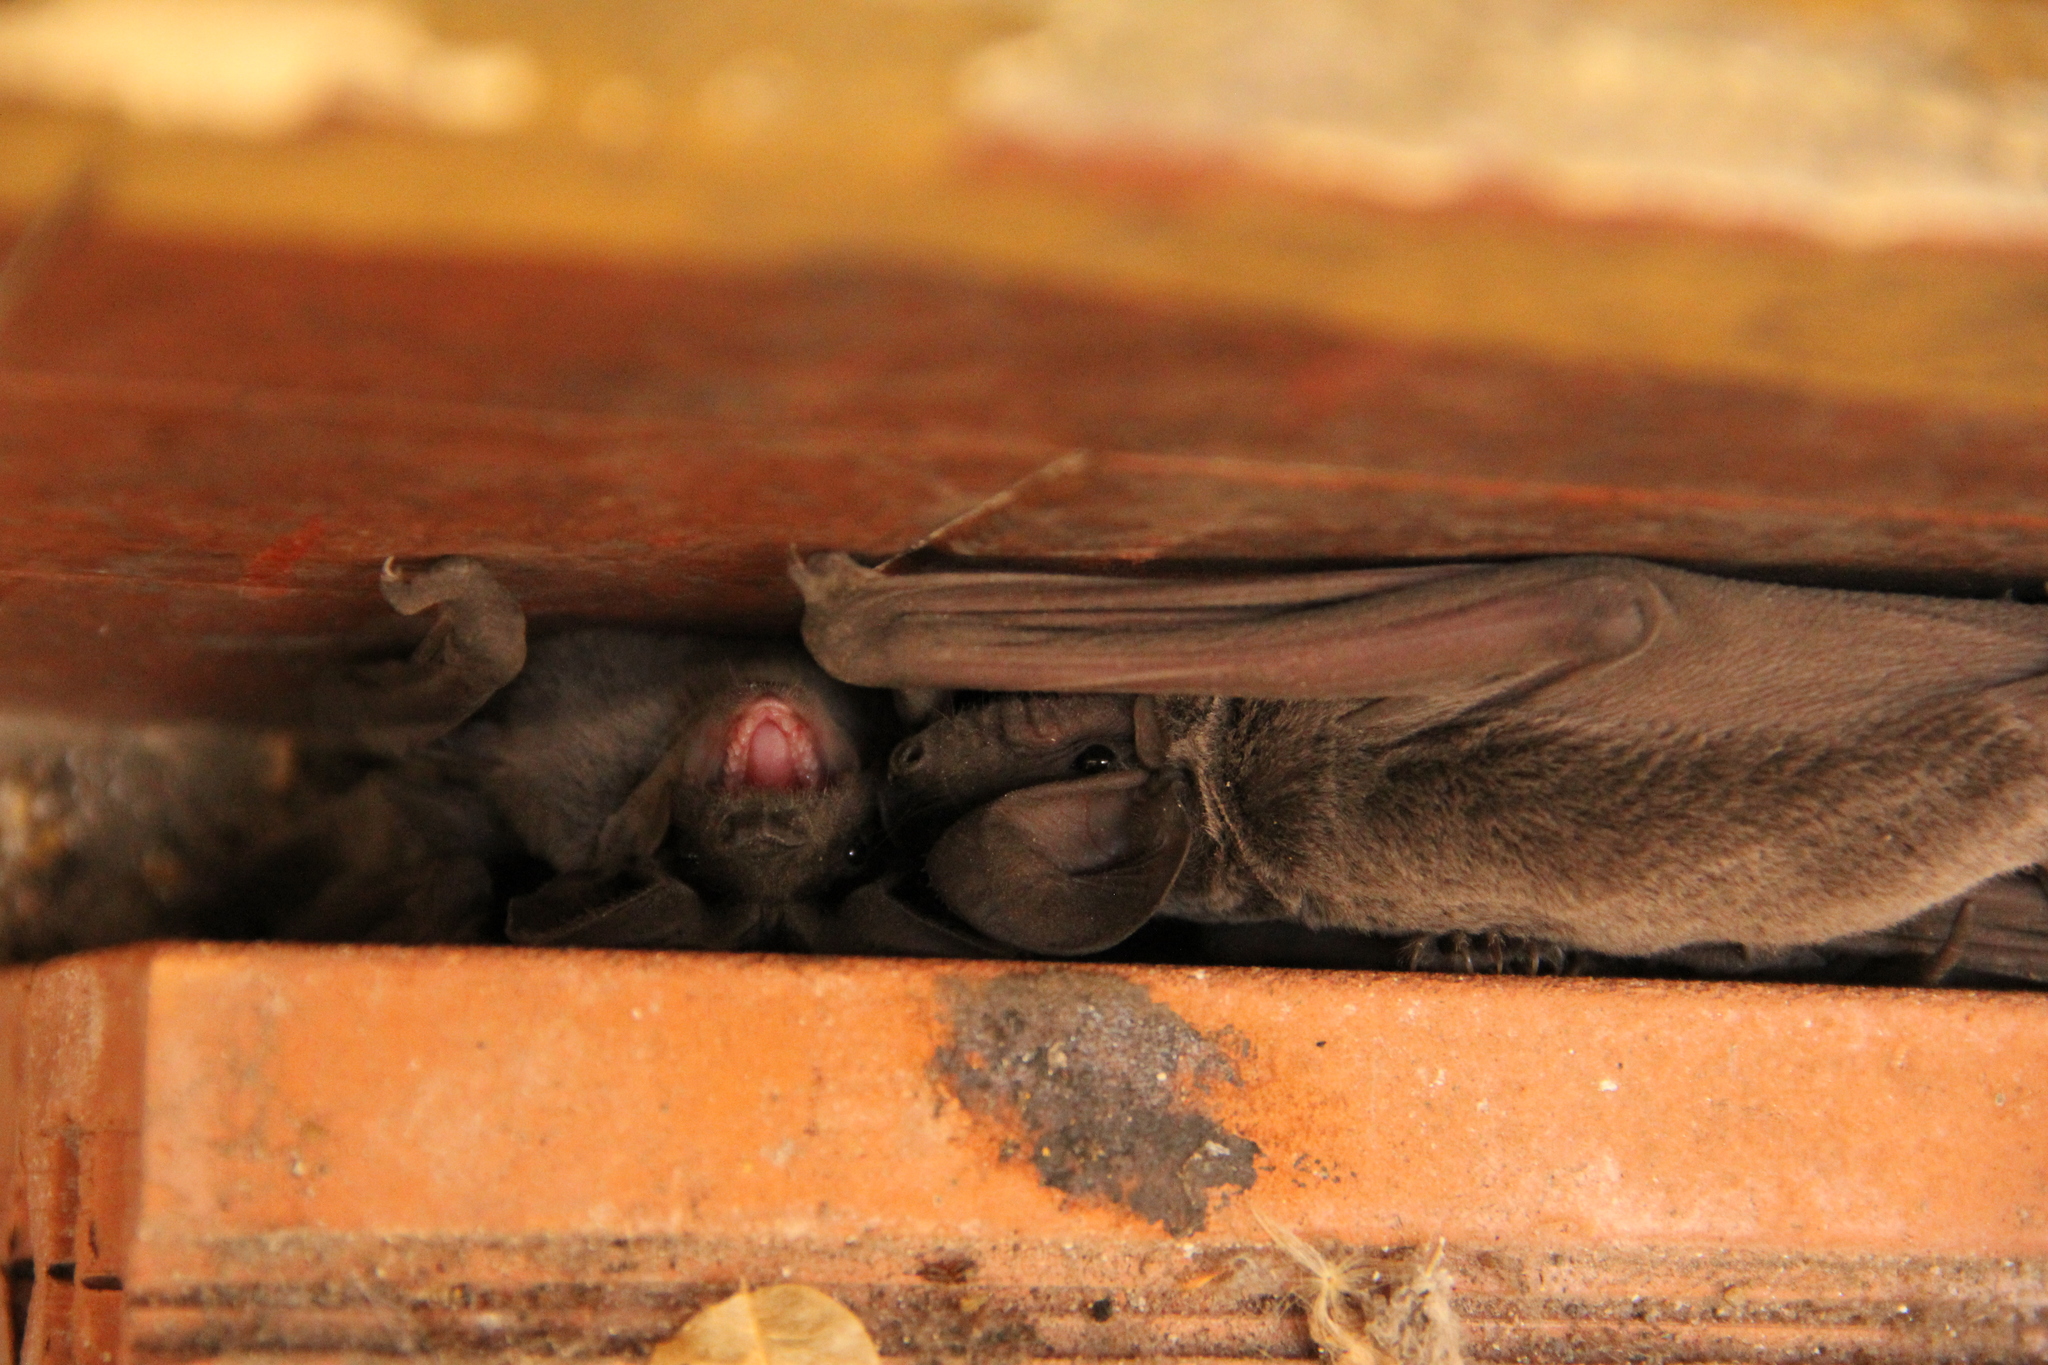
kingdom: Animalia
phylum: Chordata
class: Mammalia
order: Chiroptera
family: Molossidae
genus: Tadarida
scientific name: Tadarida teniotis
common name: European free-tailed bat
